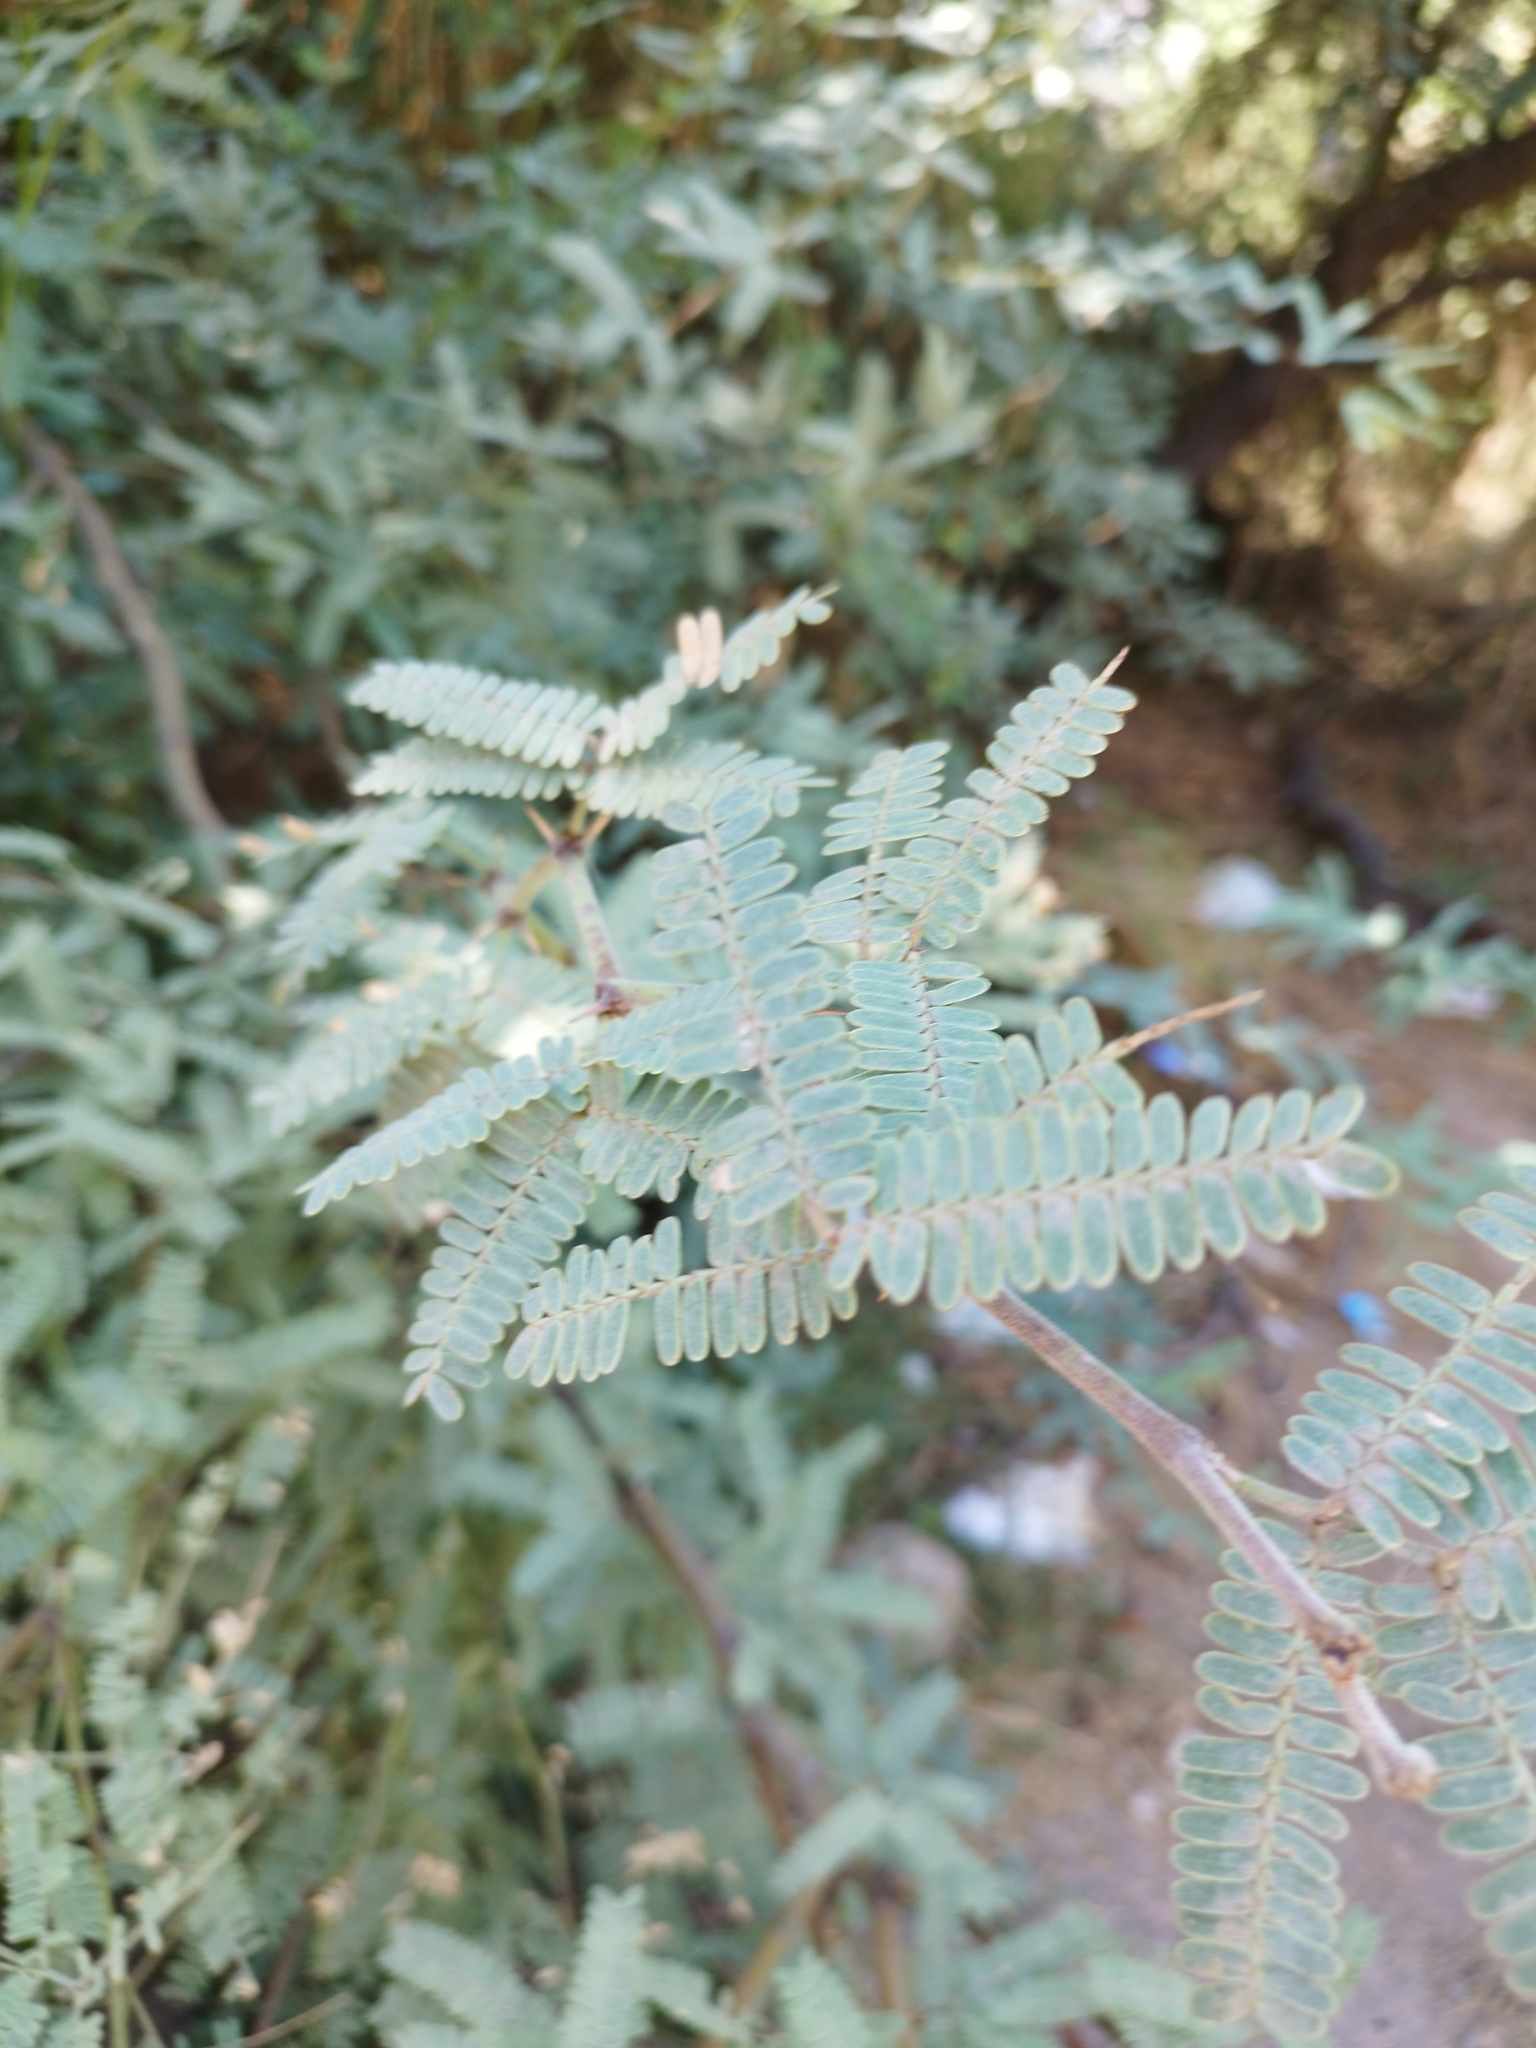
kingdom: Plantae
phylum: Tracheophyta
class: Magnoliopsida
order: Fabales
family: Fabaceae
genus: Prosopis
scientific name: Prosopis velutina
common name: Velvet mesquite
